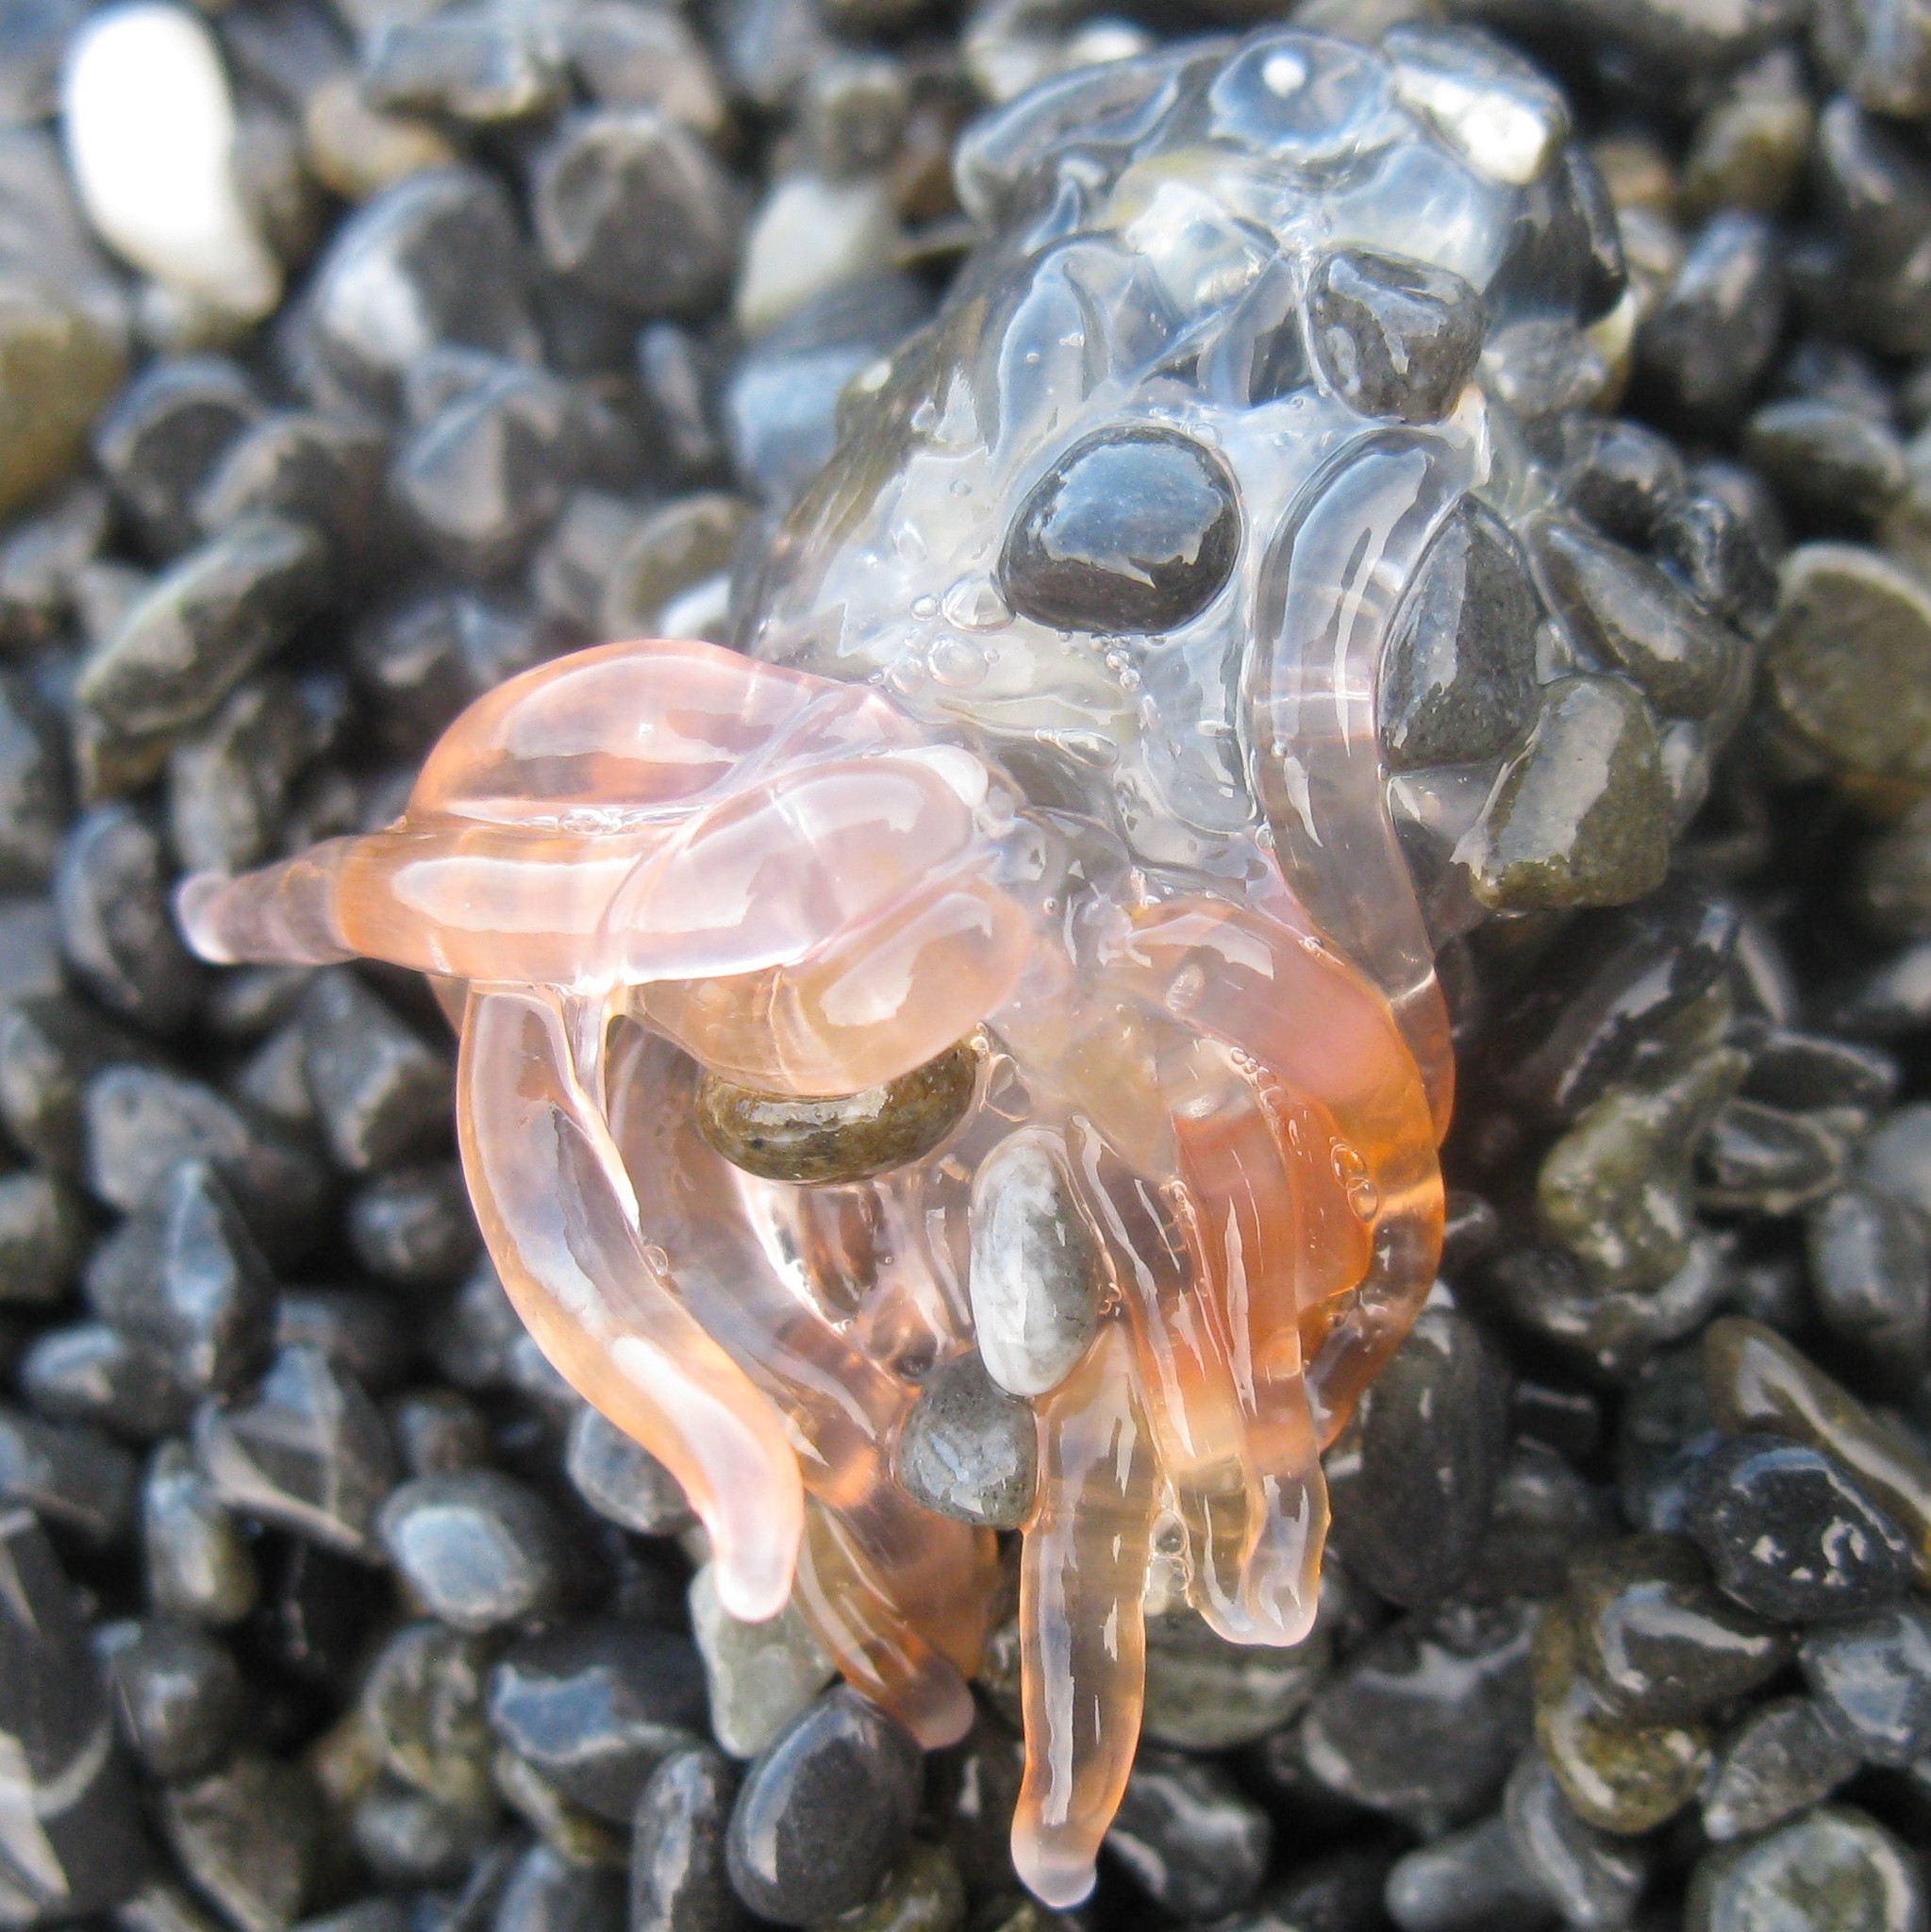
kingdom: Animalia
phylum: Cnidaria
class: Hydrozoa
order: Siphonophorae
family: Physophoridae
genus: Physophora
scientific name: Physophora hydrostatica
